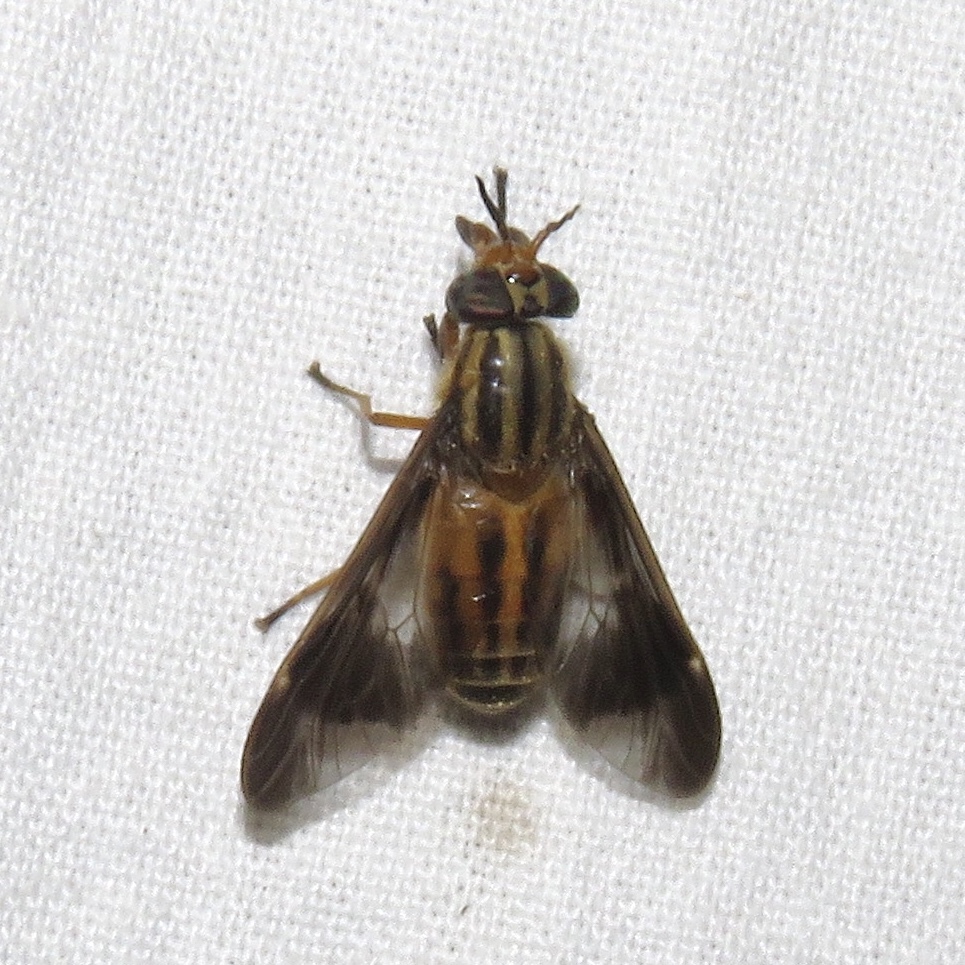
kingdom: Animalia
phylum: Arthropoda
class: Insecta
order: Diptera
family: Tabanidae
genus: Chrysops
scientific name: Chrysops aberrans
